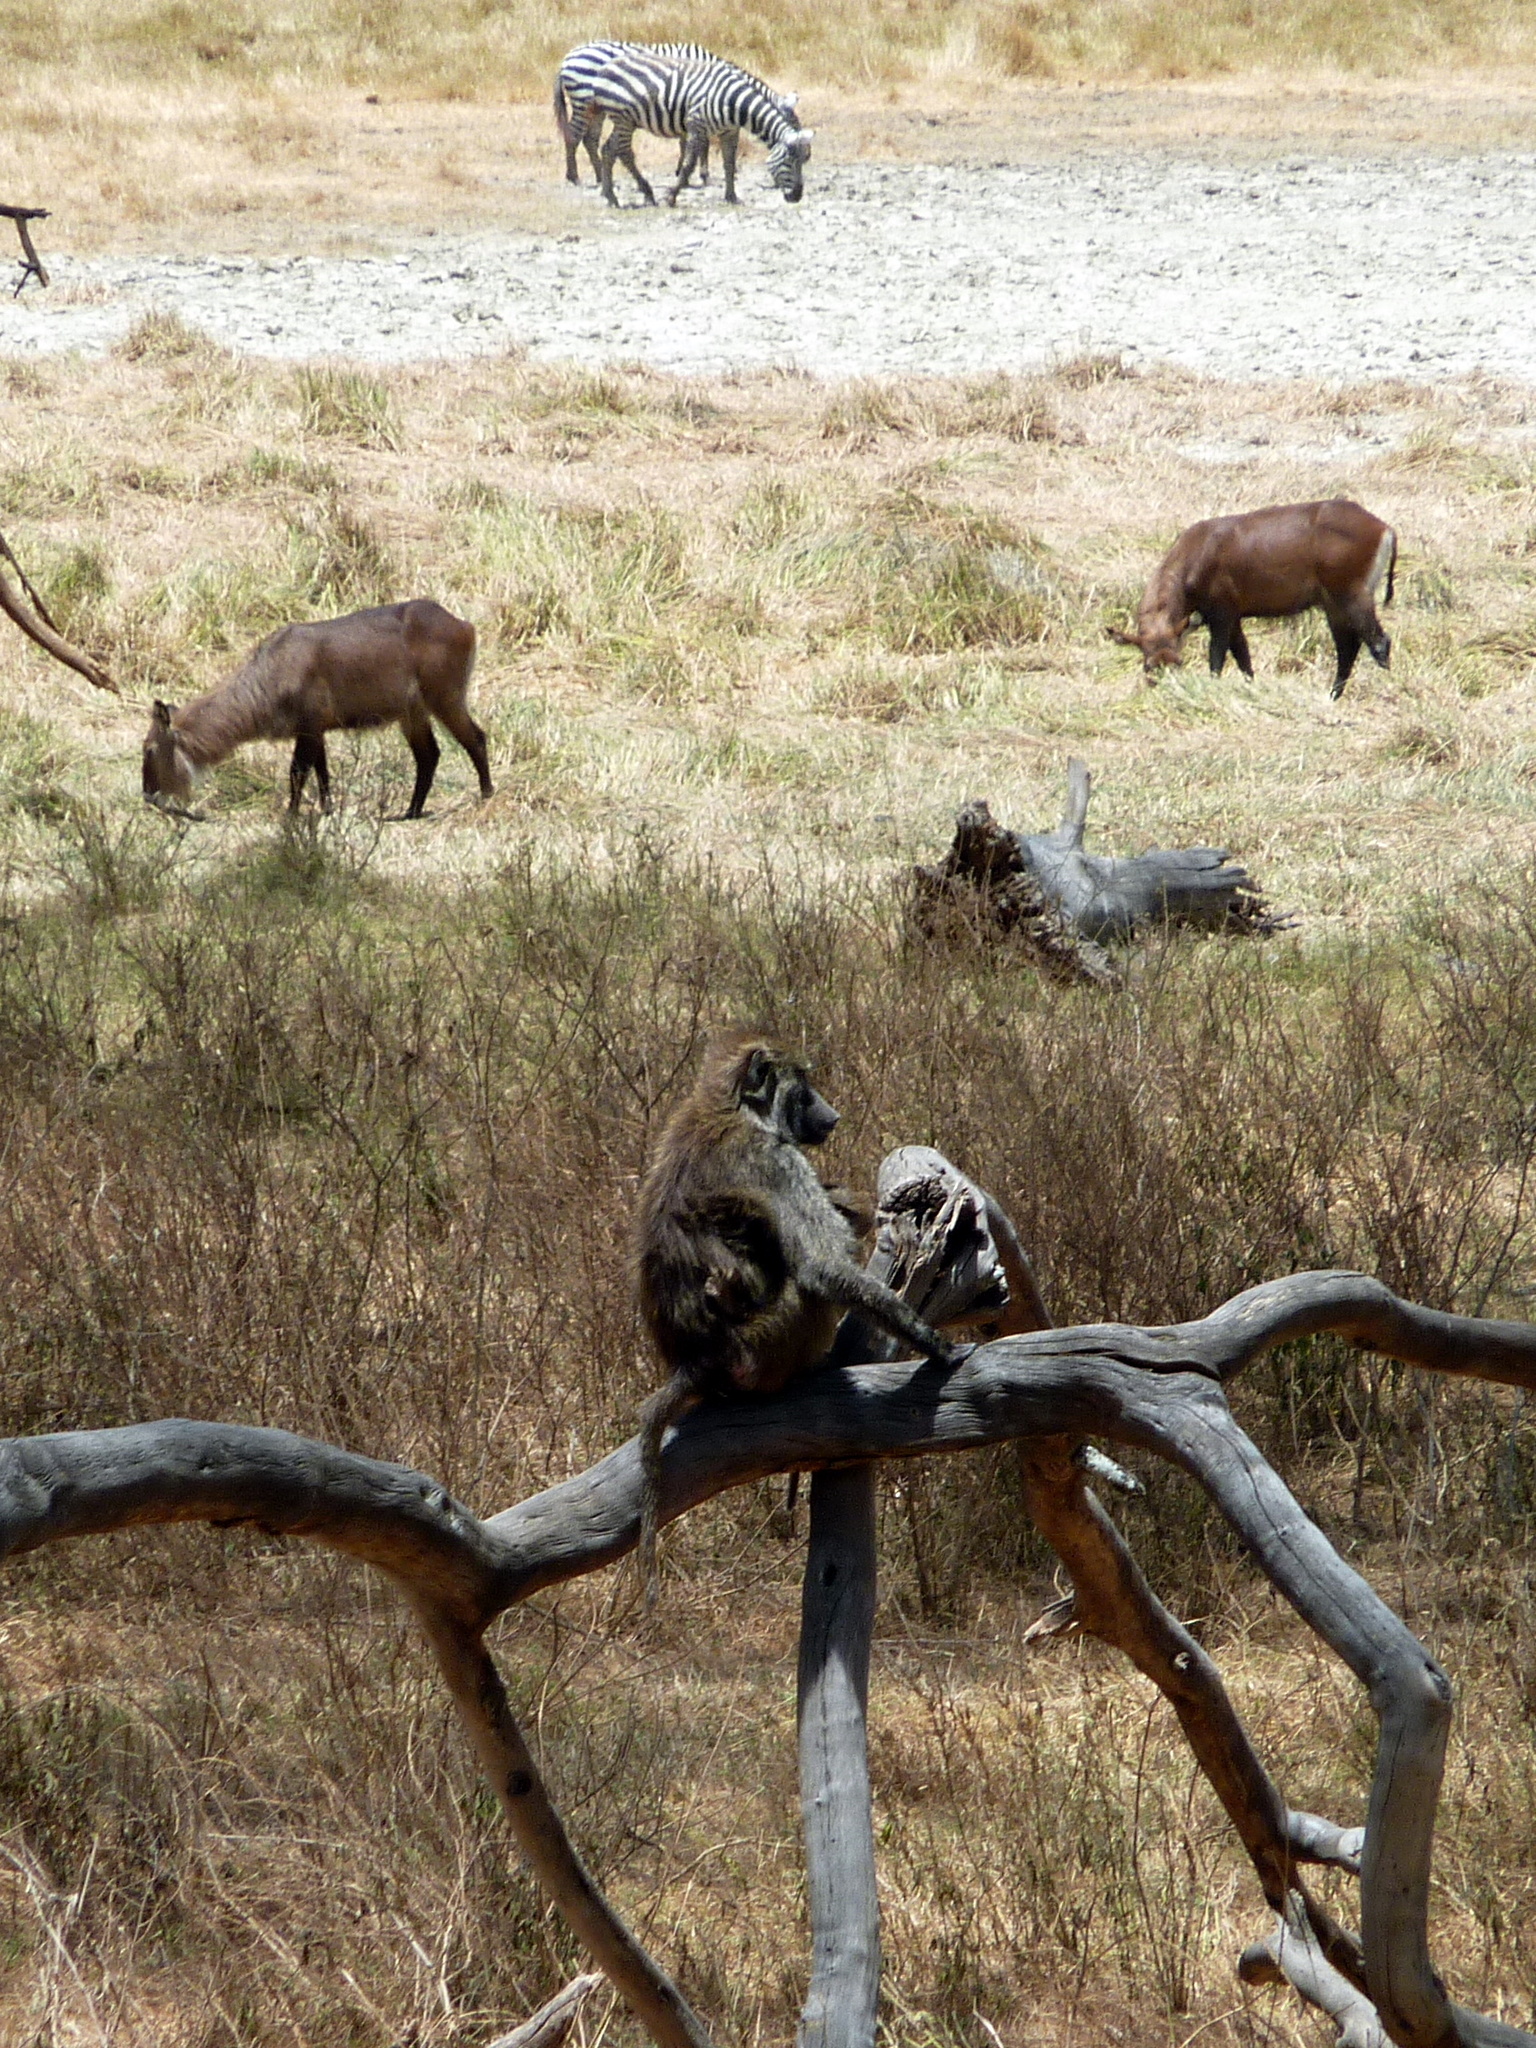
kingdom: Animalia
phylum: Chordata
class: Mammalia
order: Primates
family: Cercopithecidae
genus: Papio
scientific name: Papio anubis
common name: Olive baboon
